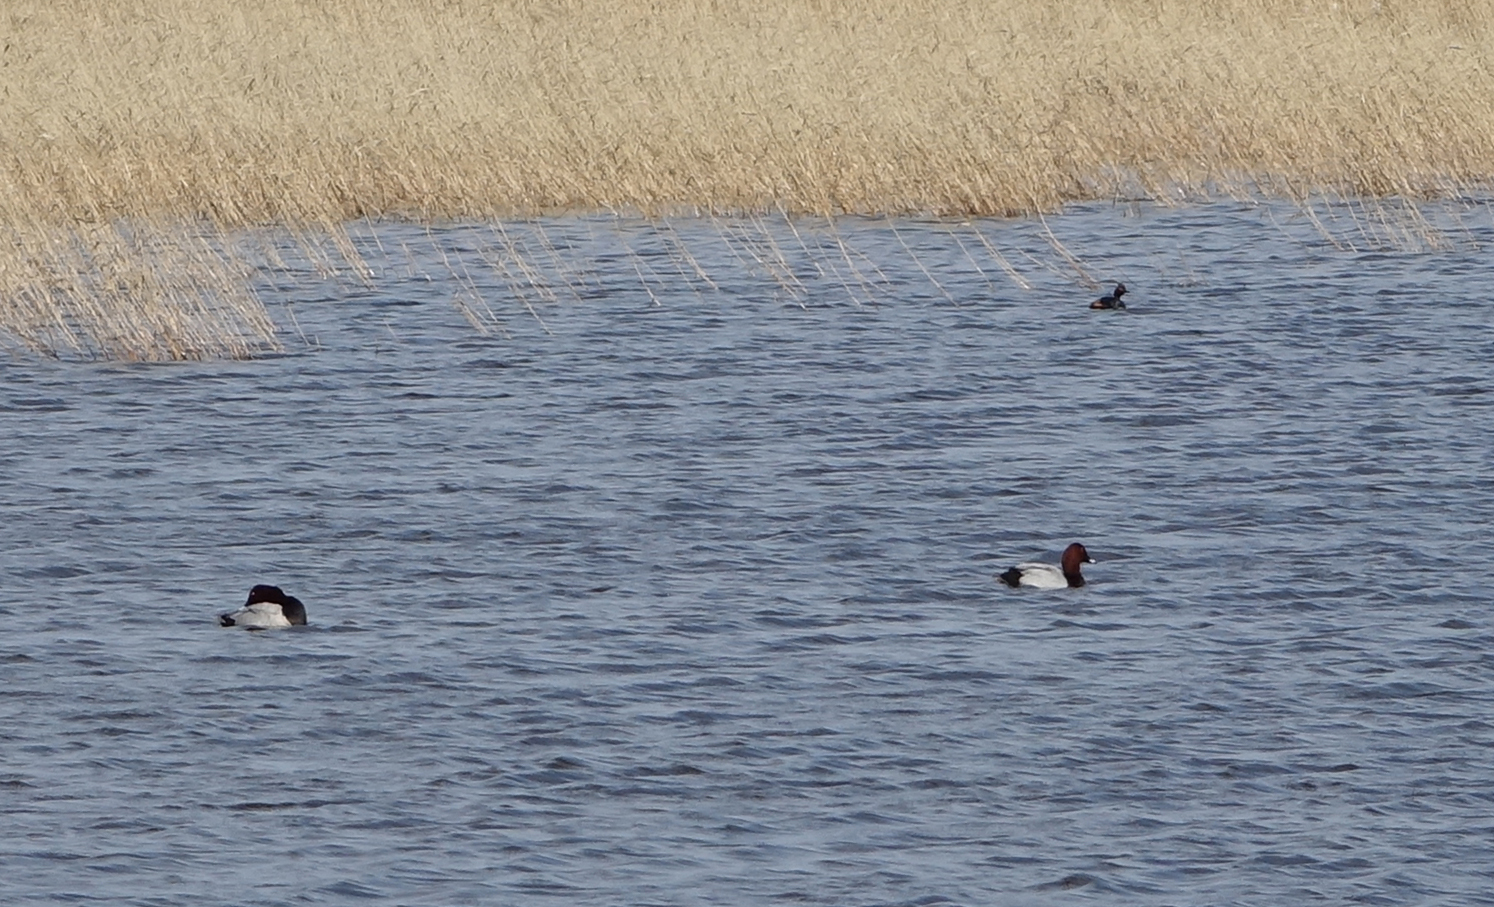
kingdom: Animalia
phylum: Chordata
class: Aves
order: Anseriformes
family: Anatidae
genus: Aythya
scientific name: Aythya ferina
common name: Common pochard
